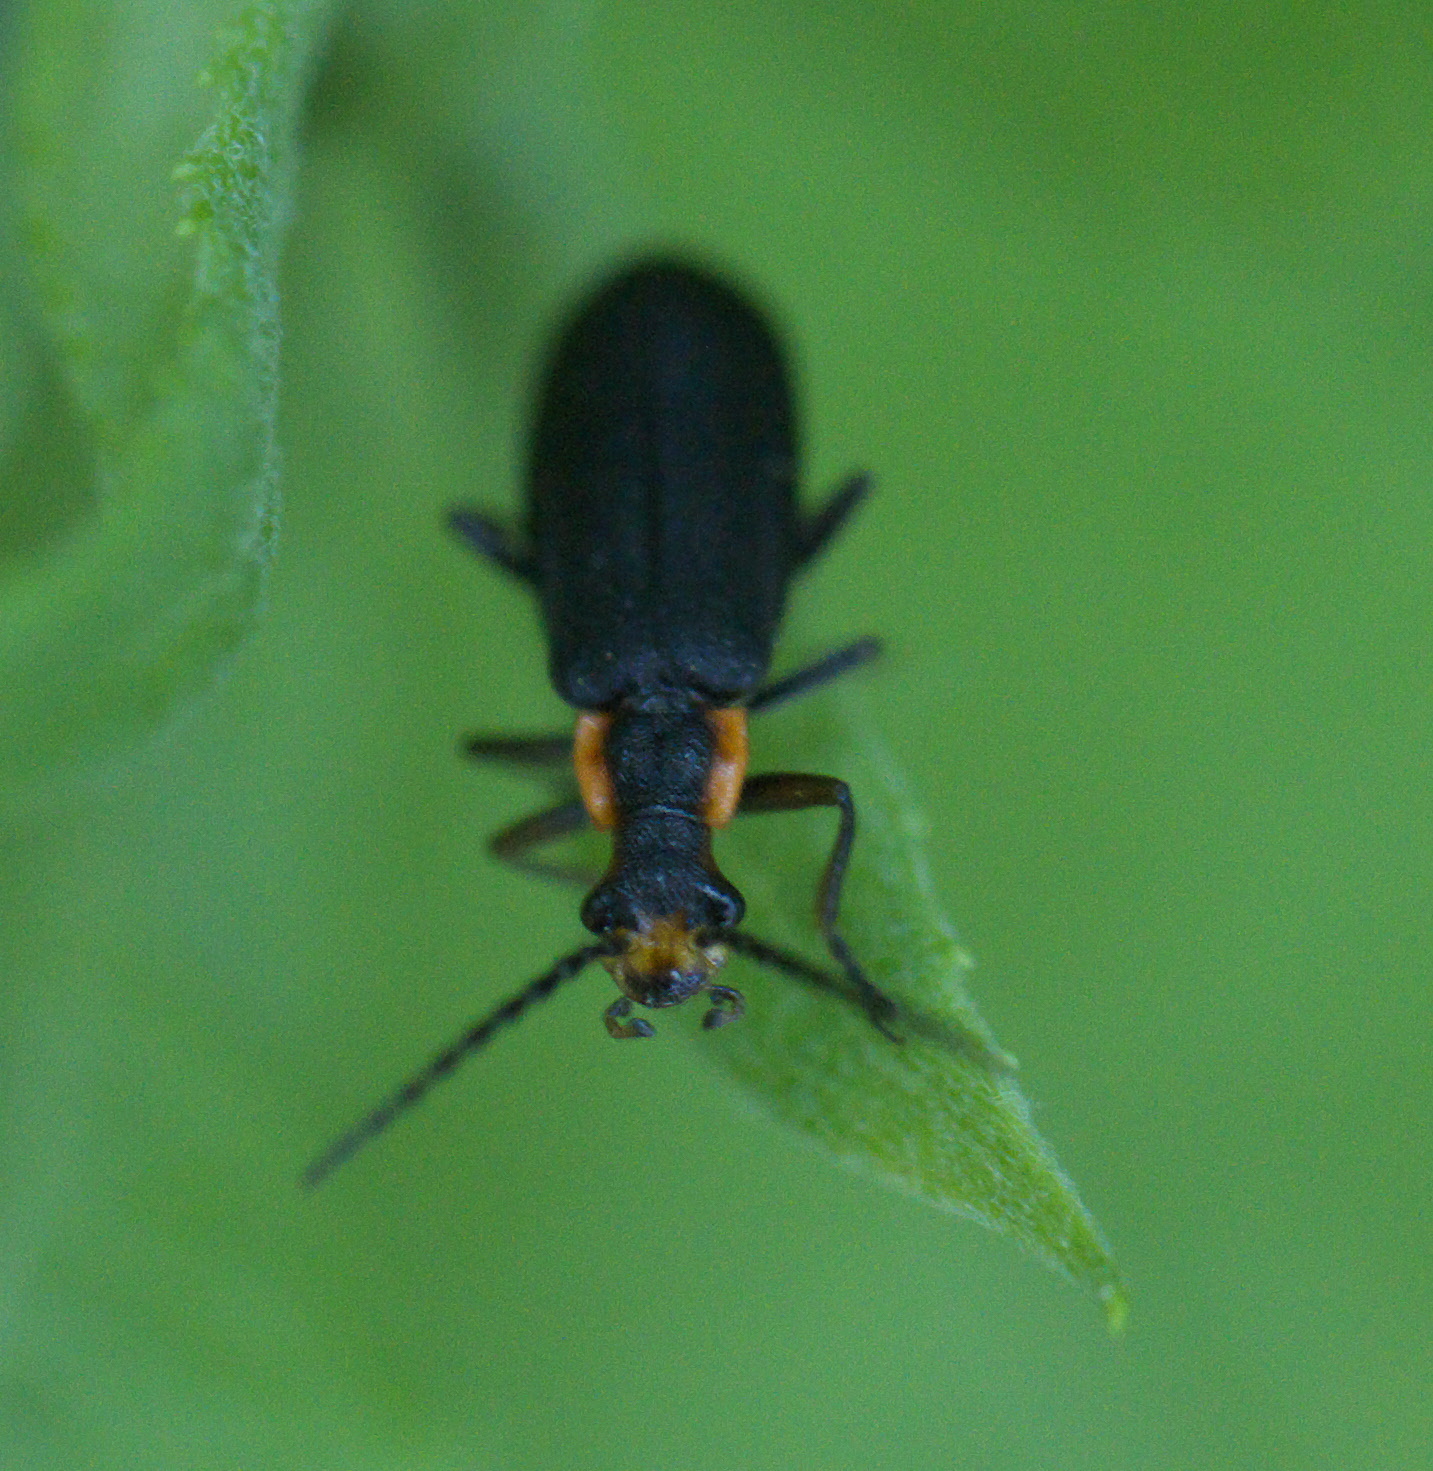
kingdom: Animalia
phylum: Arthropoda
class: Insecta
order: Coleoptera
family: Cantharidae
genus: Podabrus
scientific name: Podabrus rugosulus
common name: Wrinkled soldier beetle
